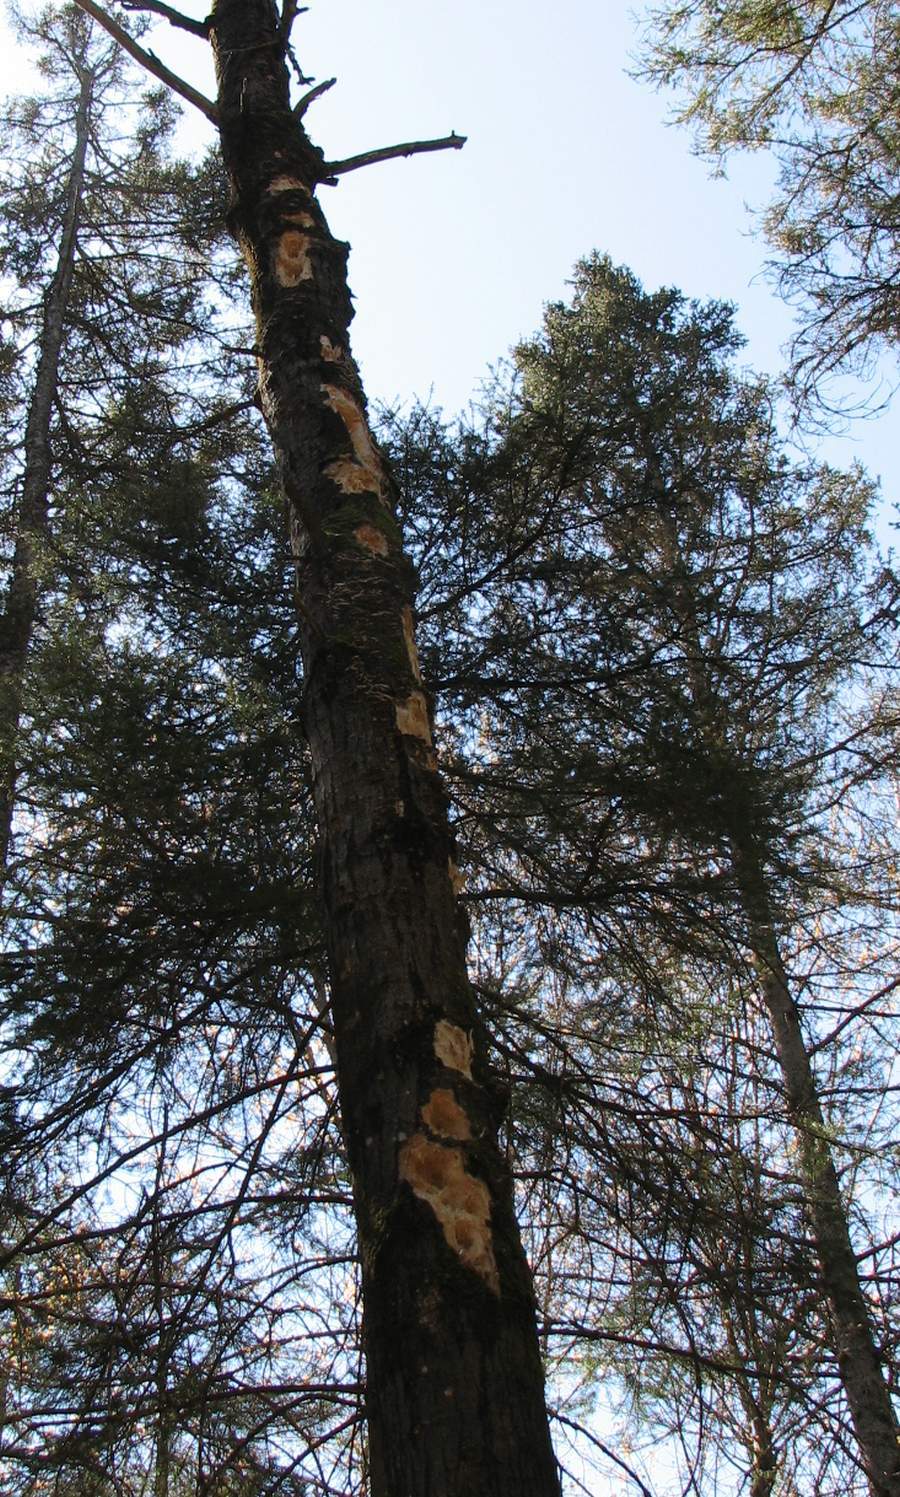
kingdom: Animalia
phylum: Chordata
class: Aves
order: Piciformes
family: Picidae
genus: Dryocopus
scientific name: Dryocopus pileatus
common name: Pileated woodpecker
